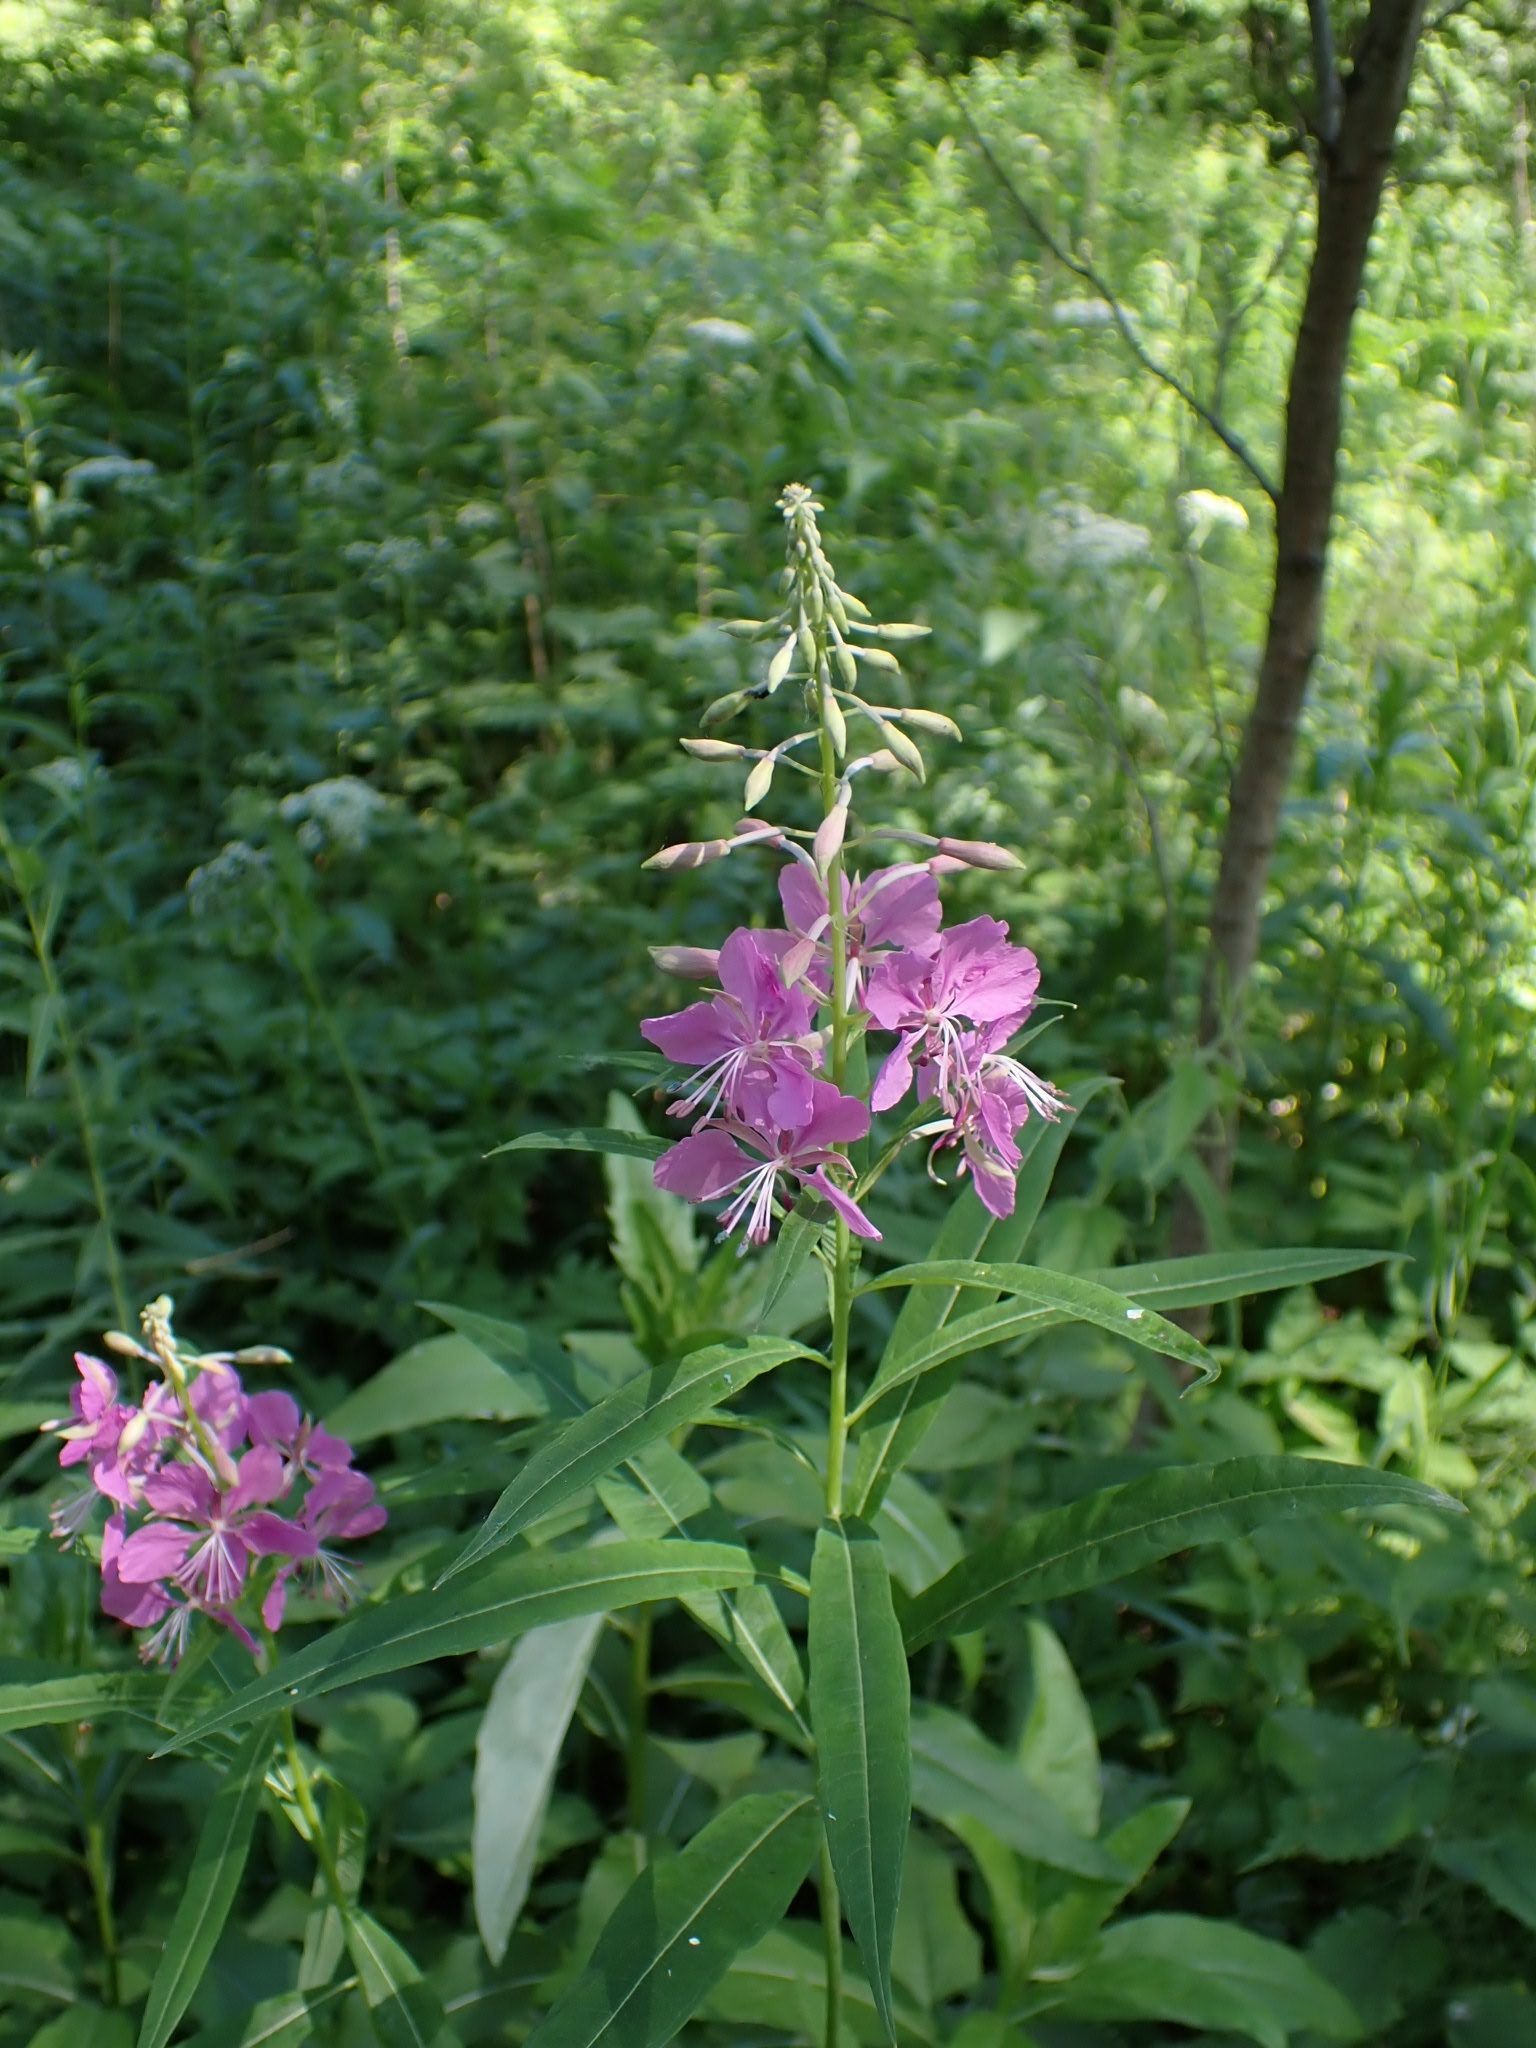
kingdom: Plantae
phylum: Tracheophyta
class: Magnoliopsida
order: Myrtales
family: Onagraceae
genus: Chamaenerion
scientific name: Chamaenerion angustifolium
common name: Fireweed
